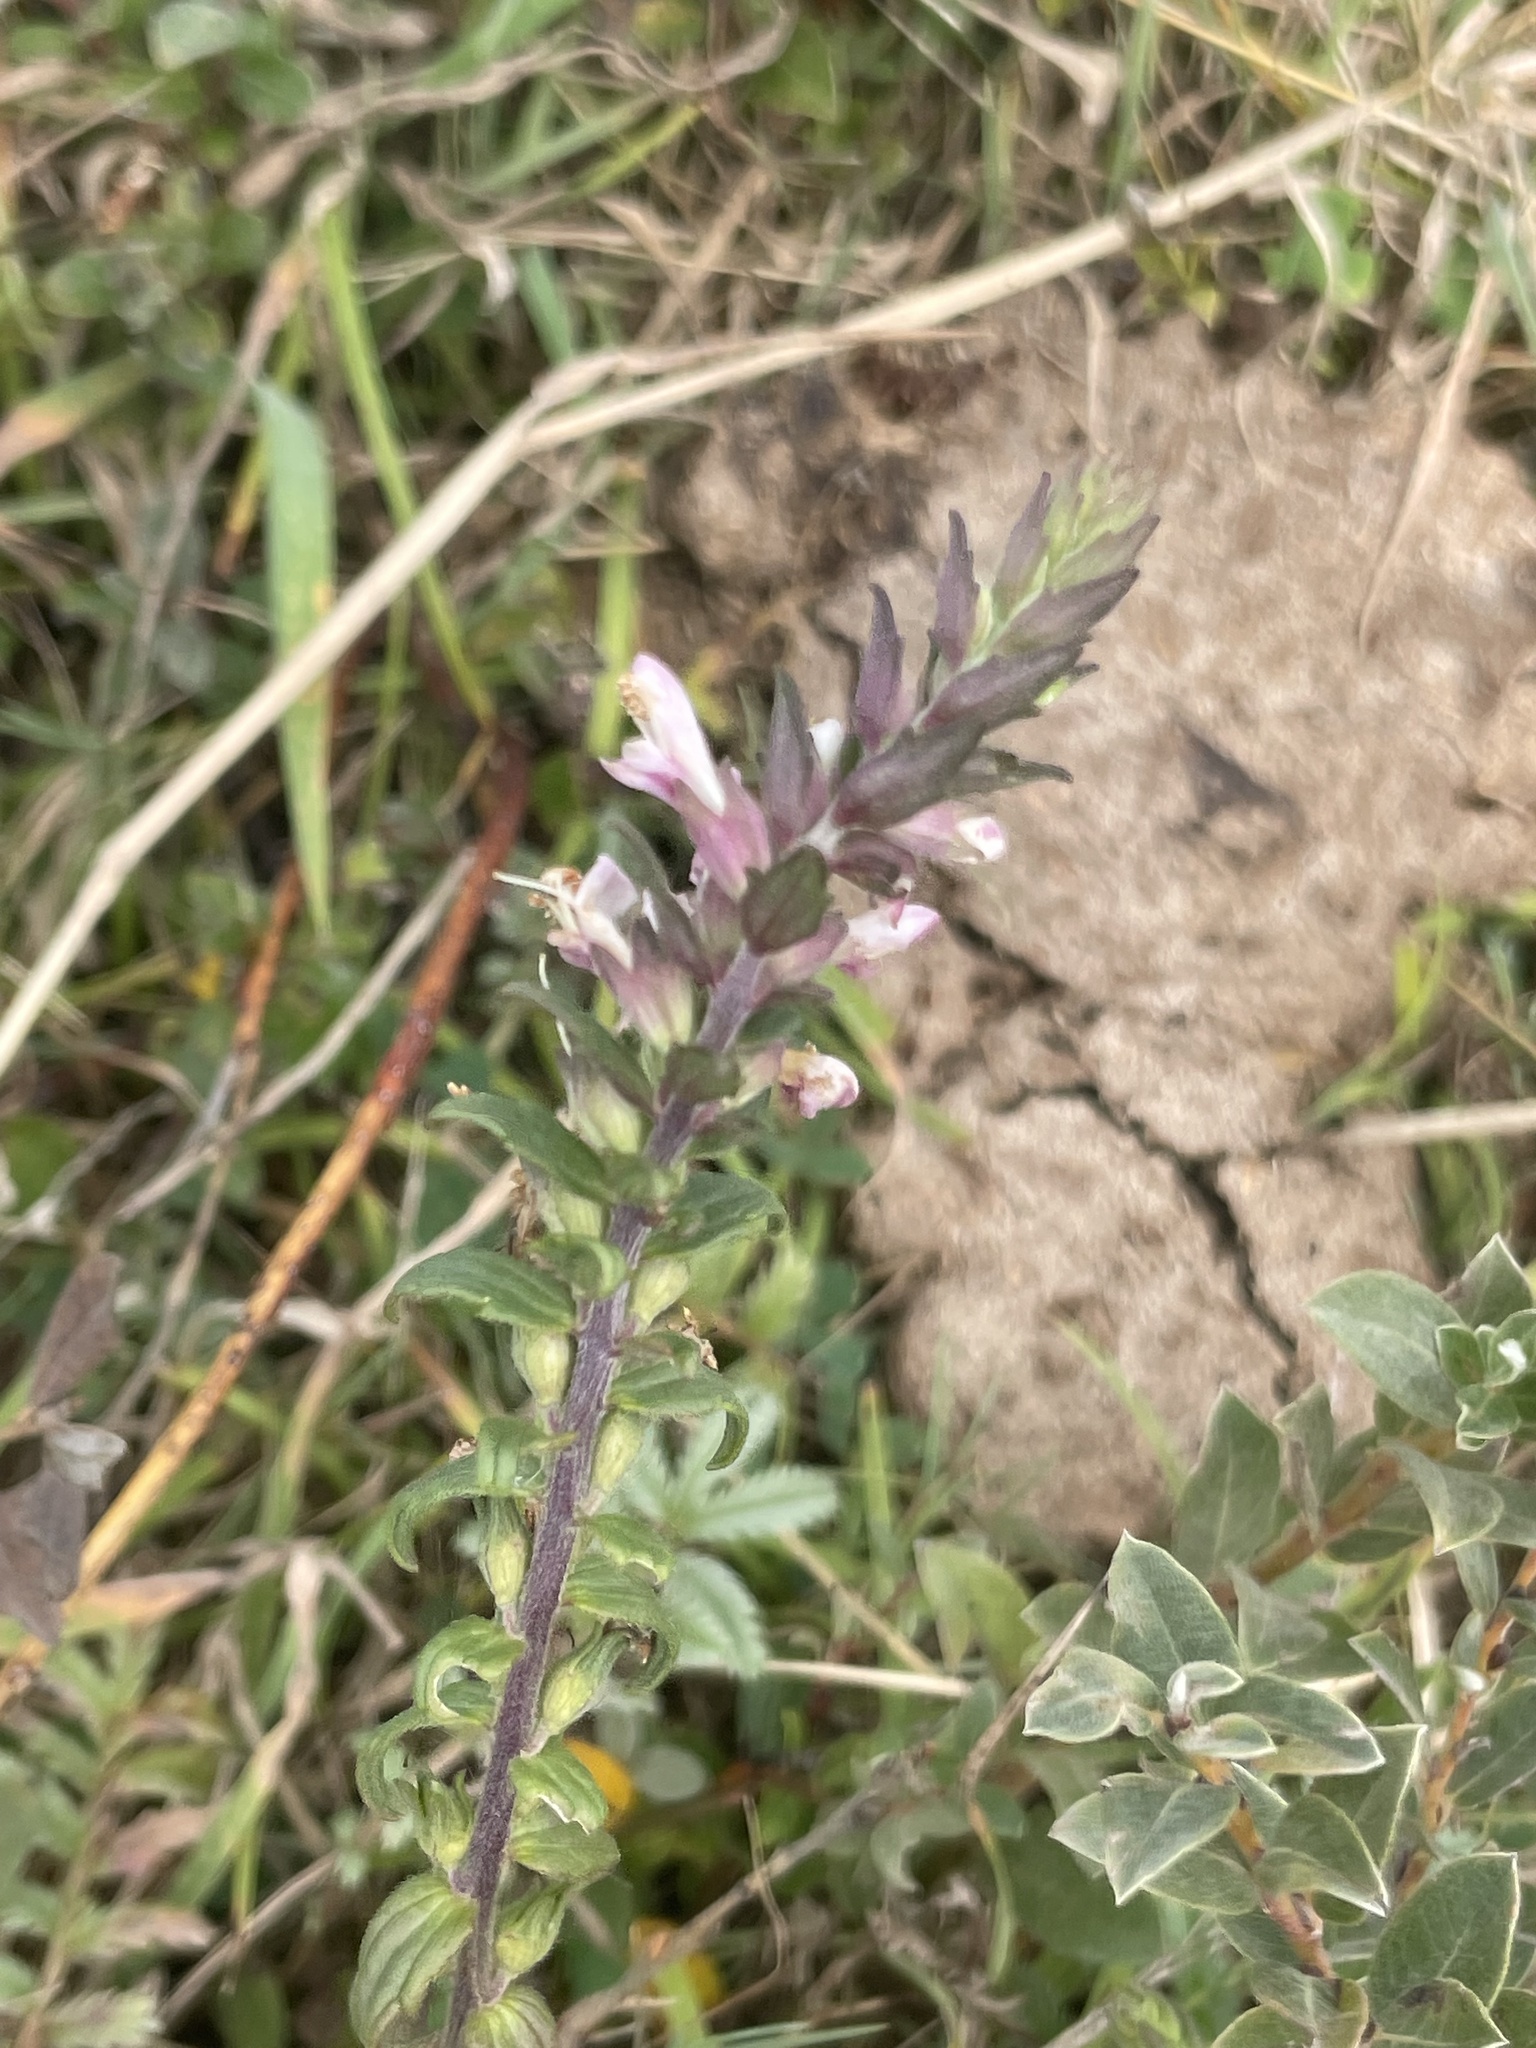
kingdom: Plantae
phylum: Tracheophyta
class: Magnoliopsida
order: Lamiales
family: Orobanchaceae
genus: Odontites
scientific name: Odontites vernus
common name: Red bartsia
